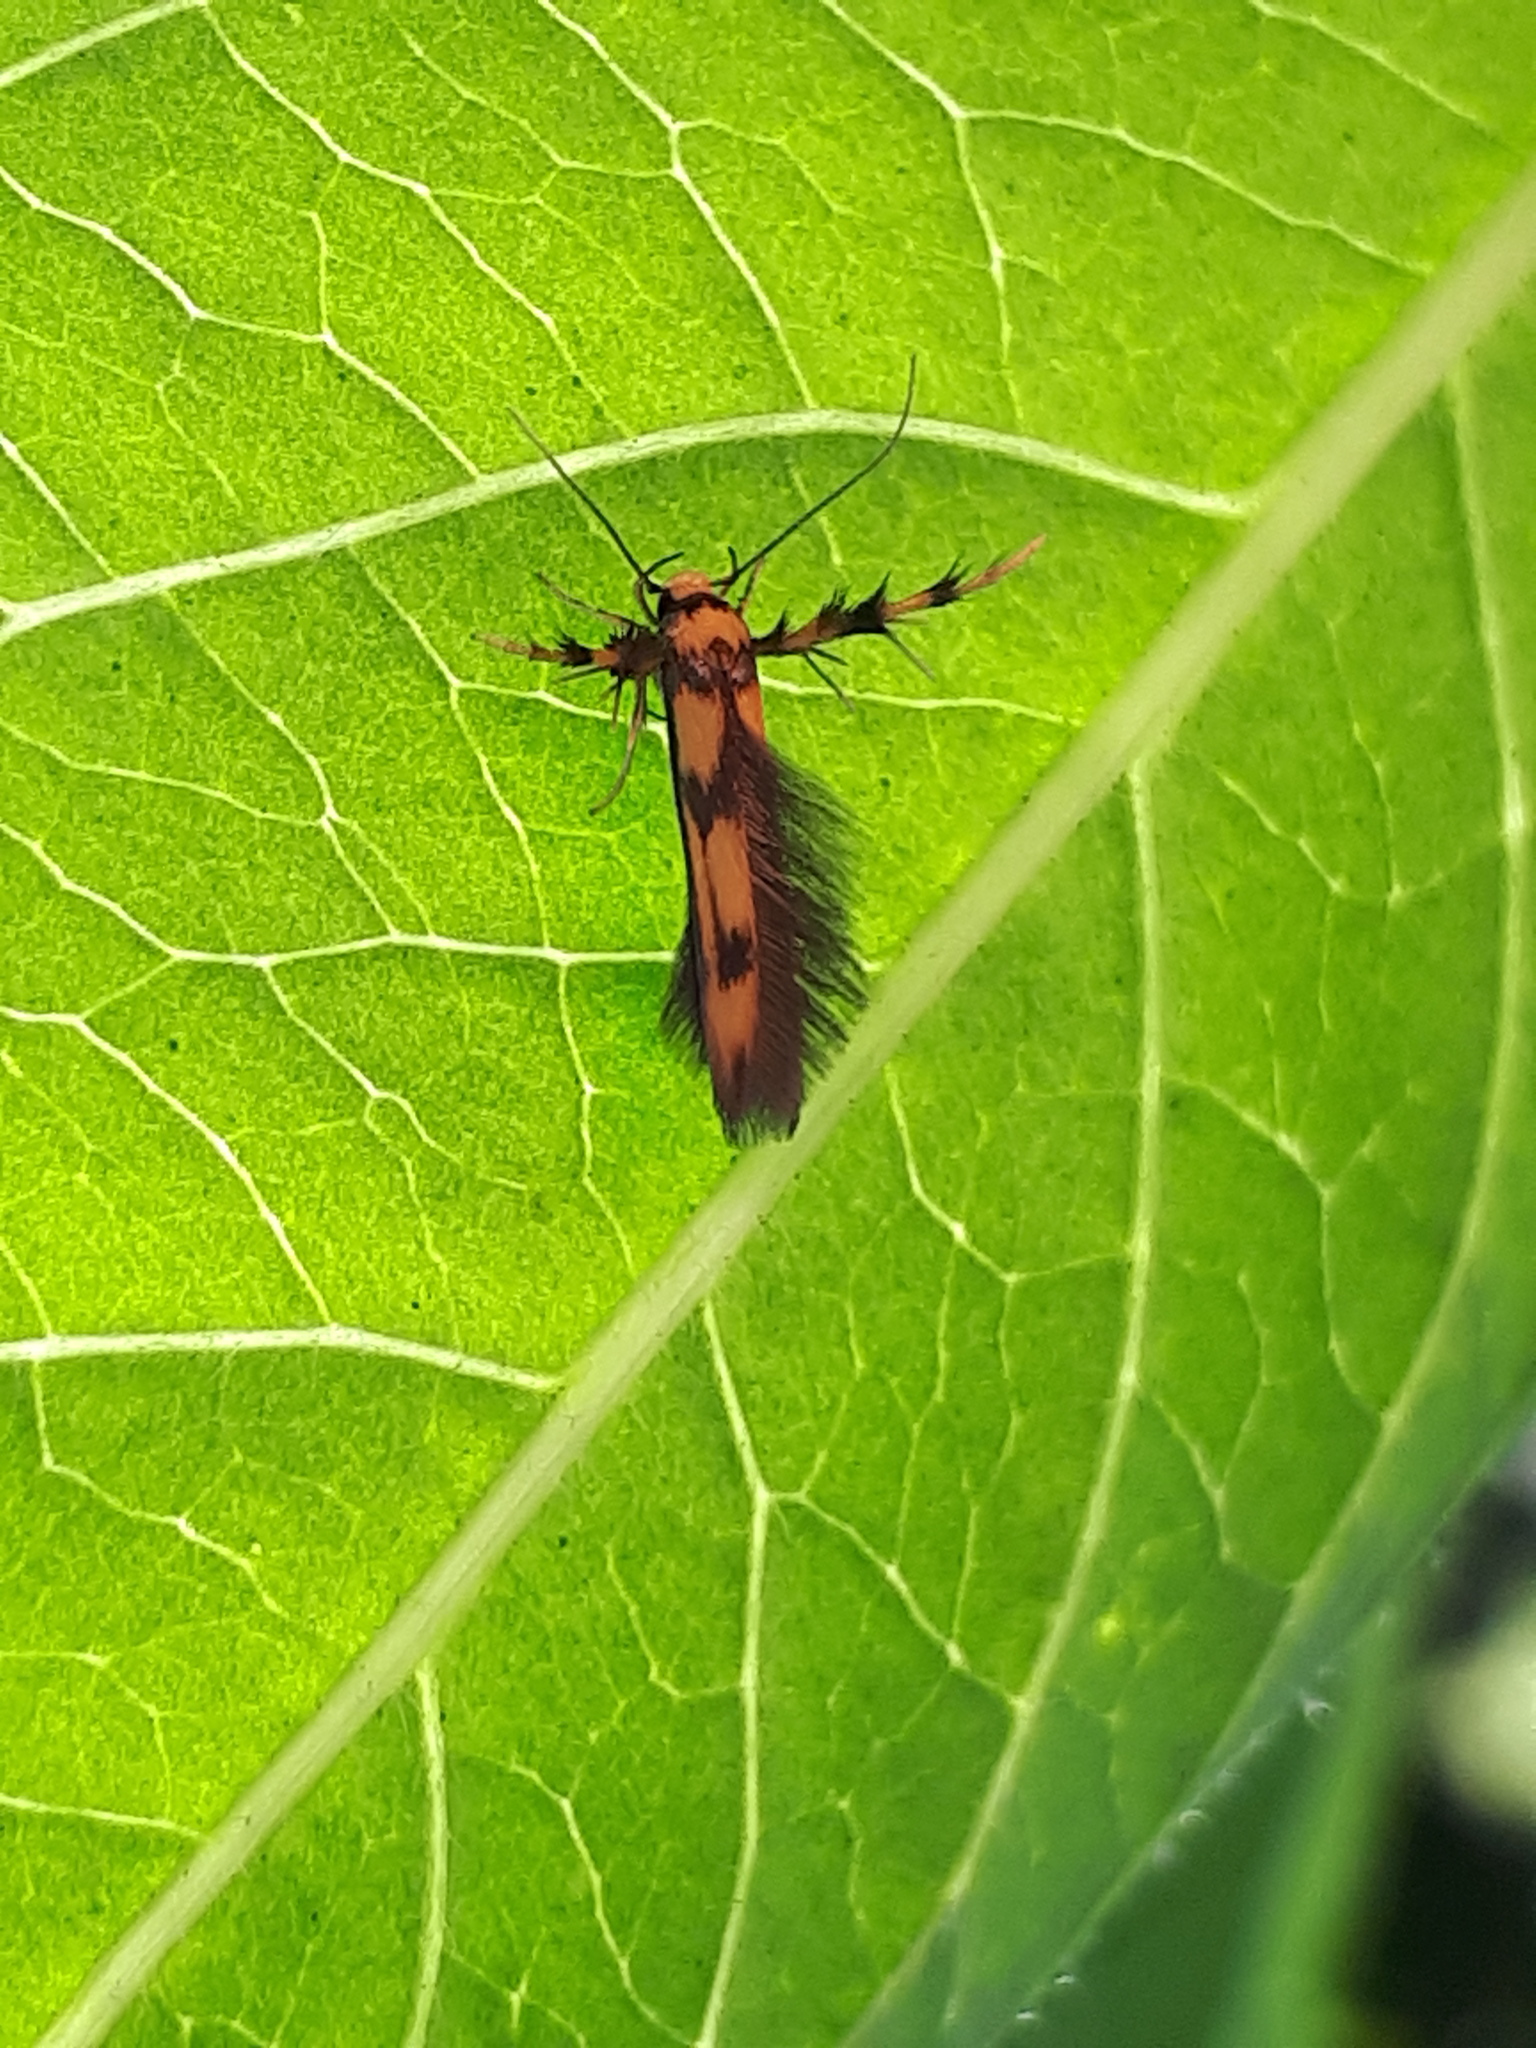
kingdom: Animalia
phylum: Arthropoda
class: Insecta
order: Lepidoptera
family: Stathmopodidae
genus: Stathmopoda
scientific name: Stathmopoda pedella
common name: Alder signal
